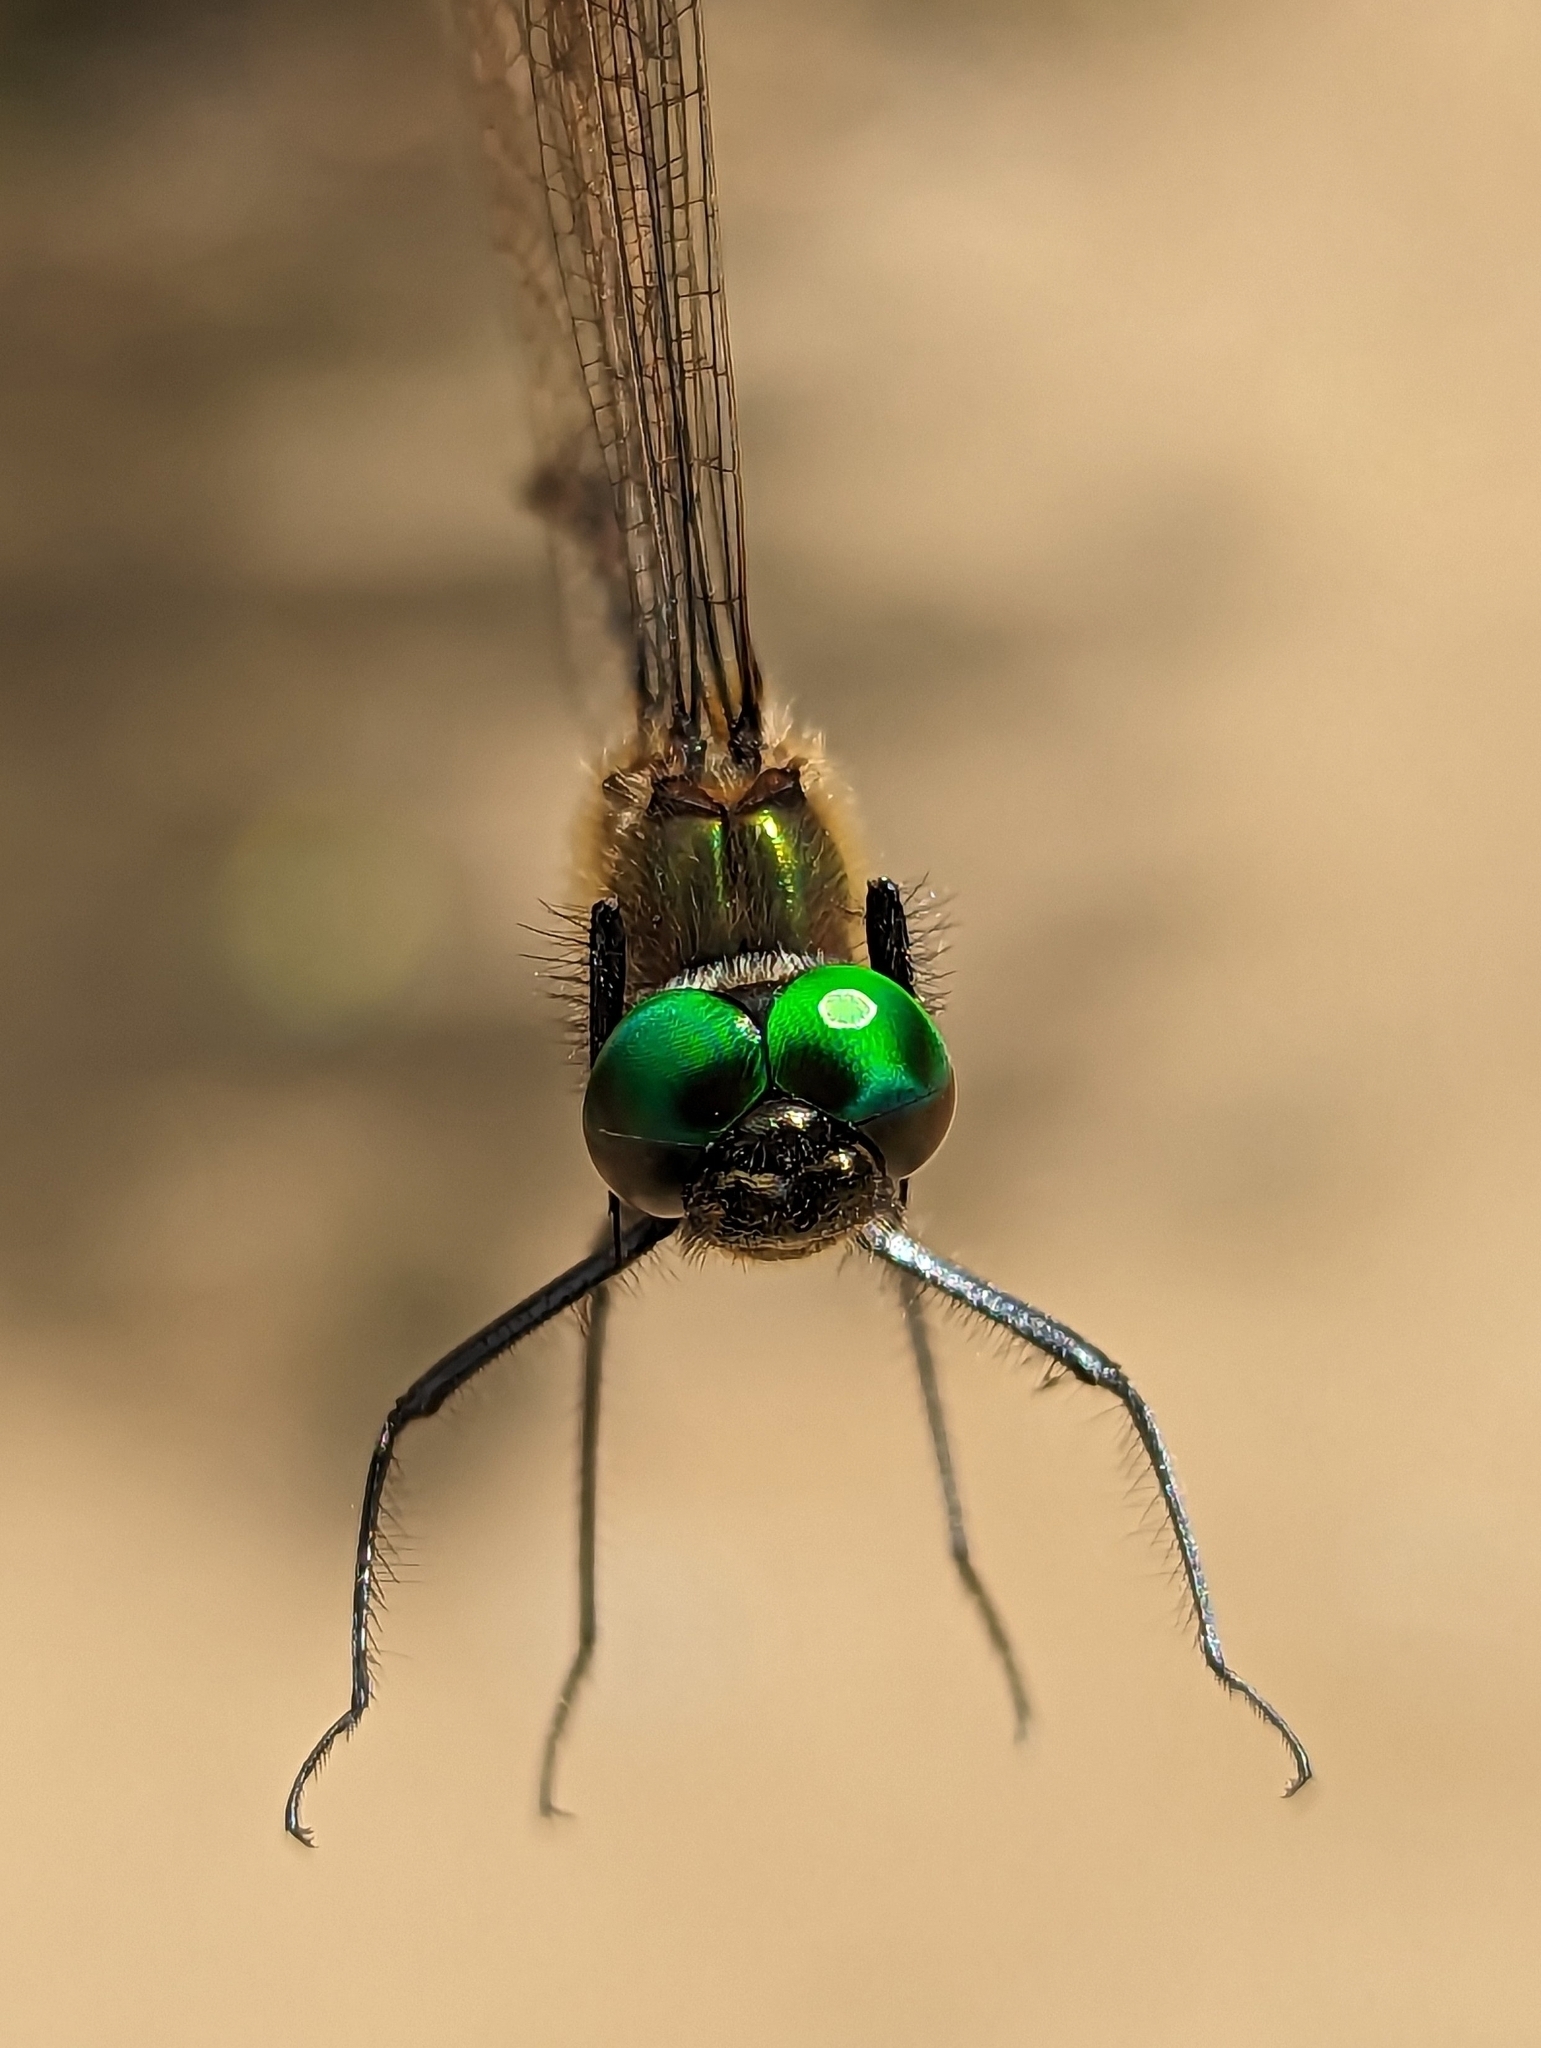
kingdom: Animalia
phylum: Arthropoda
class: Insecta
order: Odonata
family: Corduliidae
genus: Dorocordulia
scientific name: Dorocordulia libera
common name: Racket-tailed emerald
